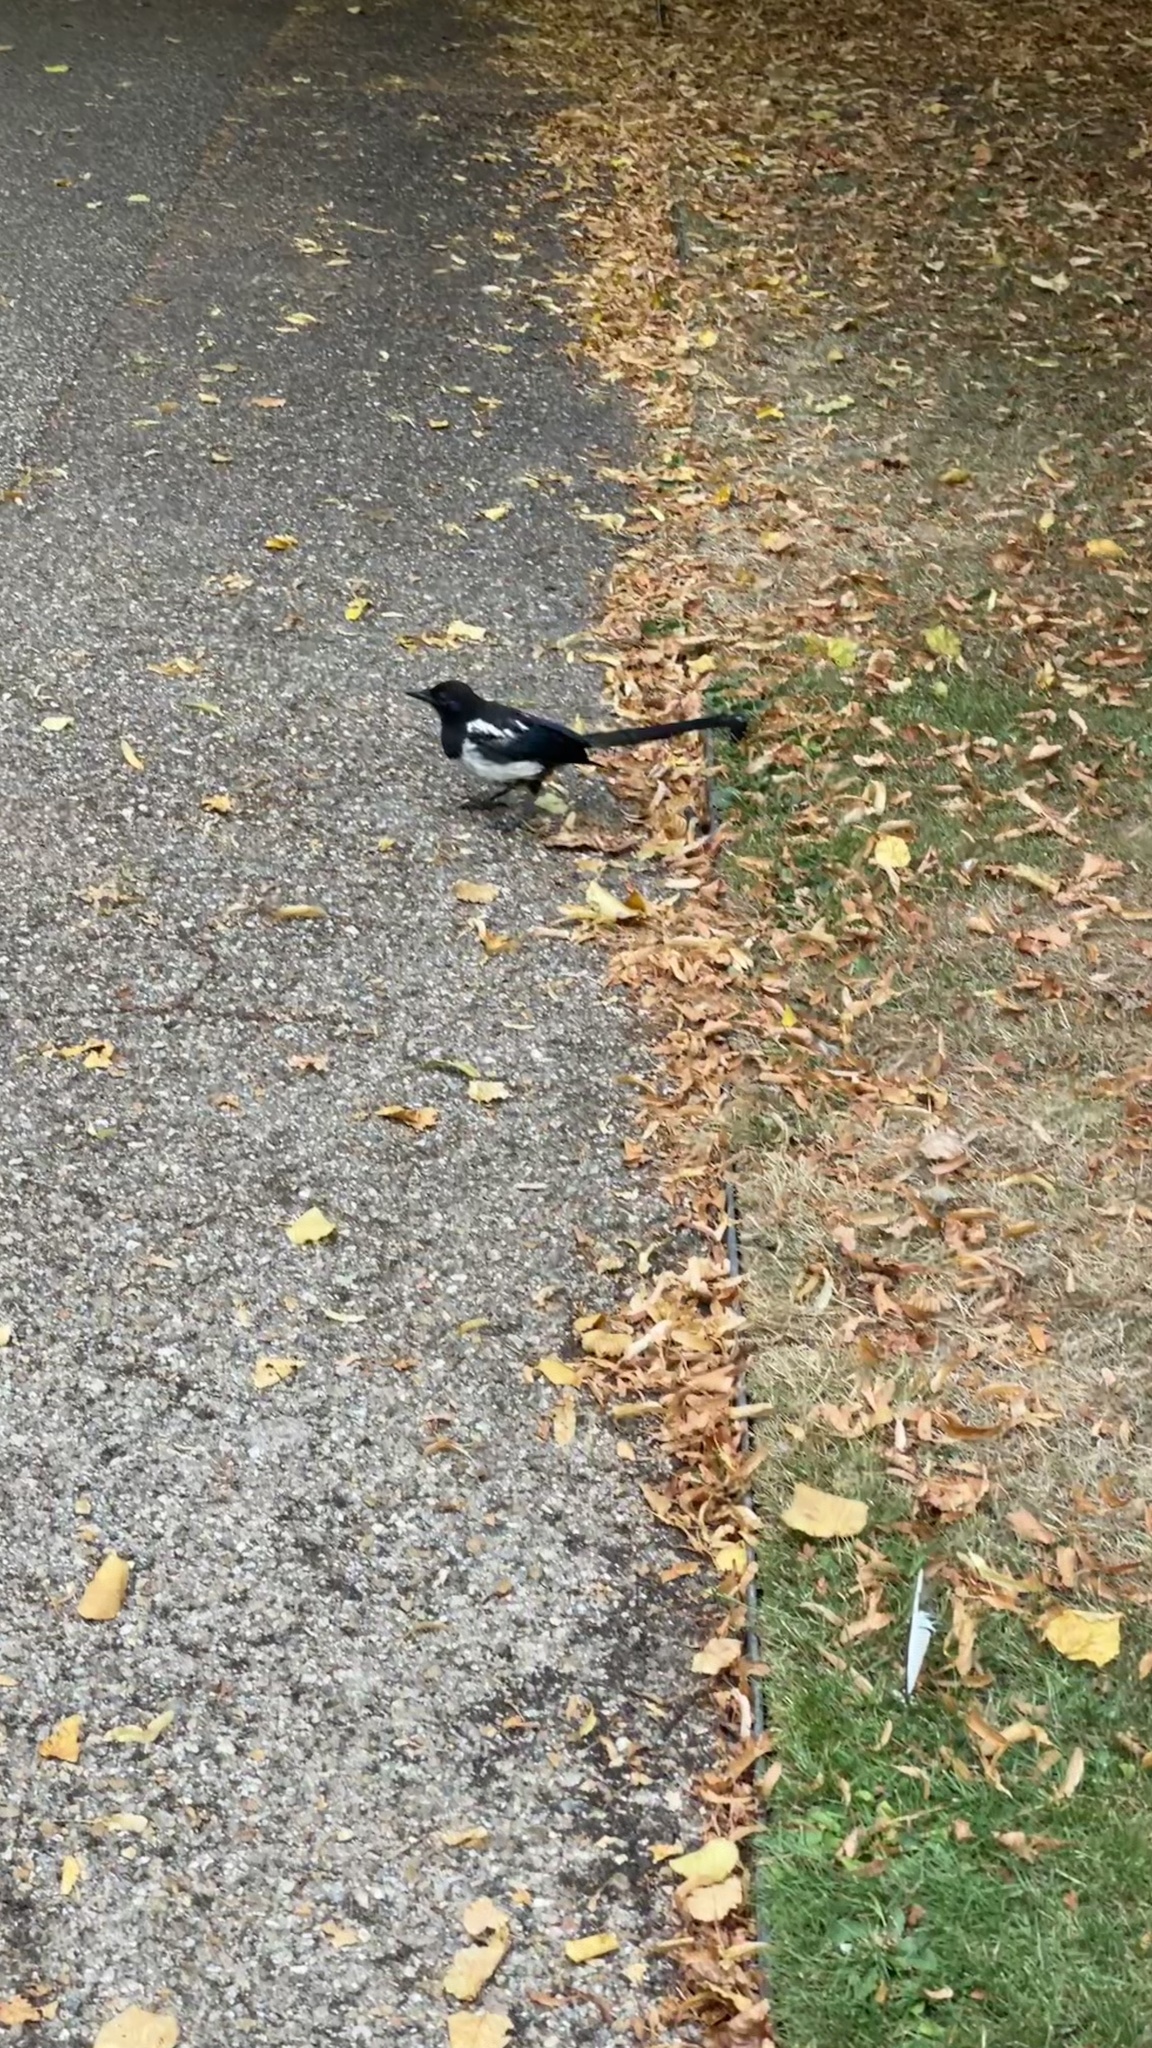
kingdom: Animalia
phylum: Chordata
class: Aves
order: Passeriformes
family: Corvidae
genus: Pica
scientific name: Pica pica
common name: Eurasian magpie
